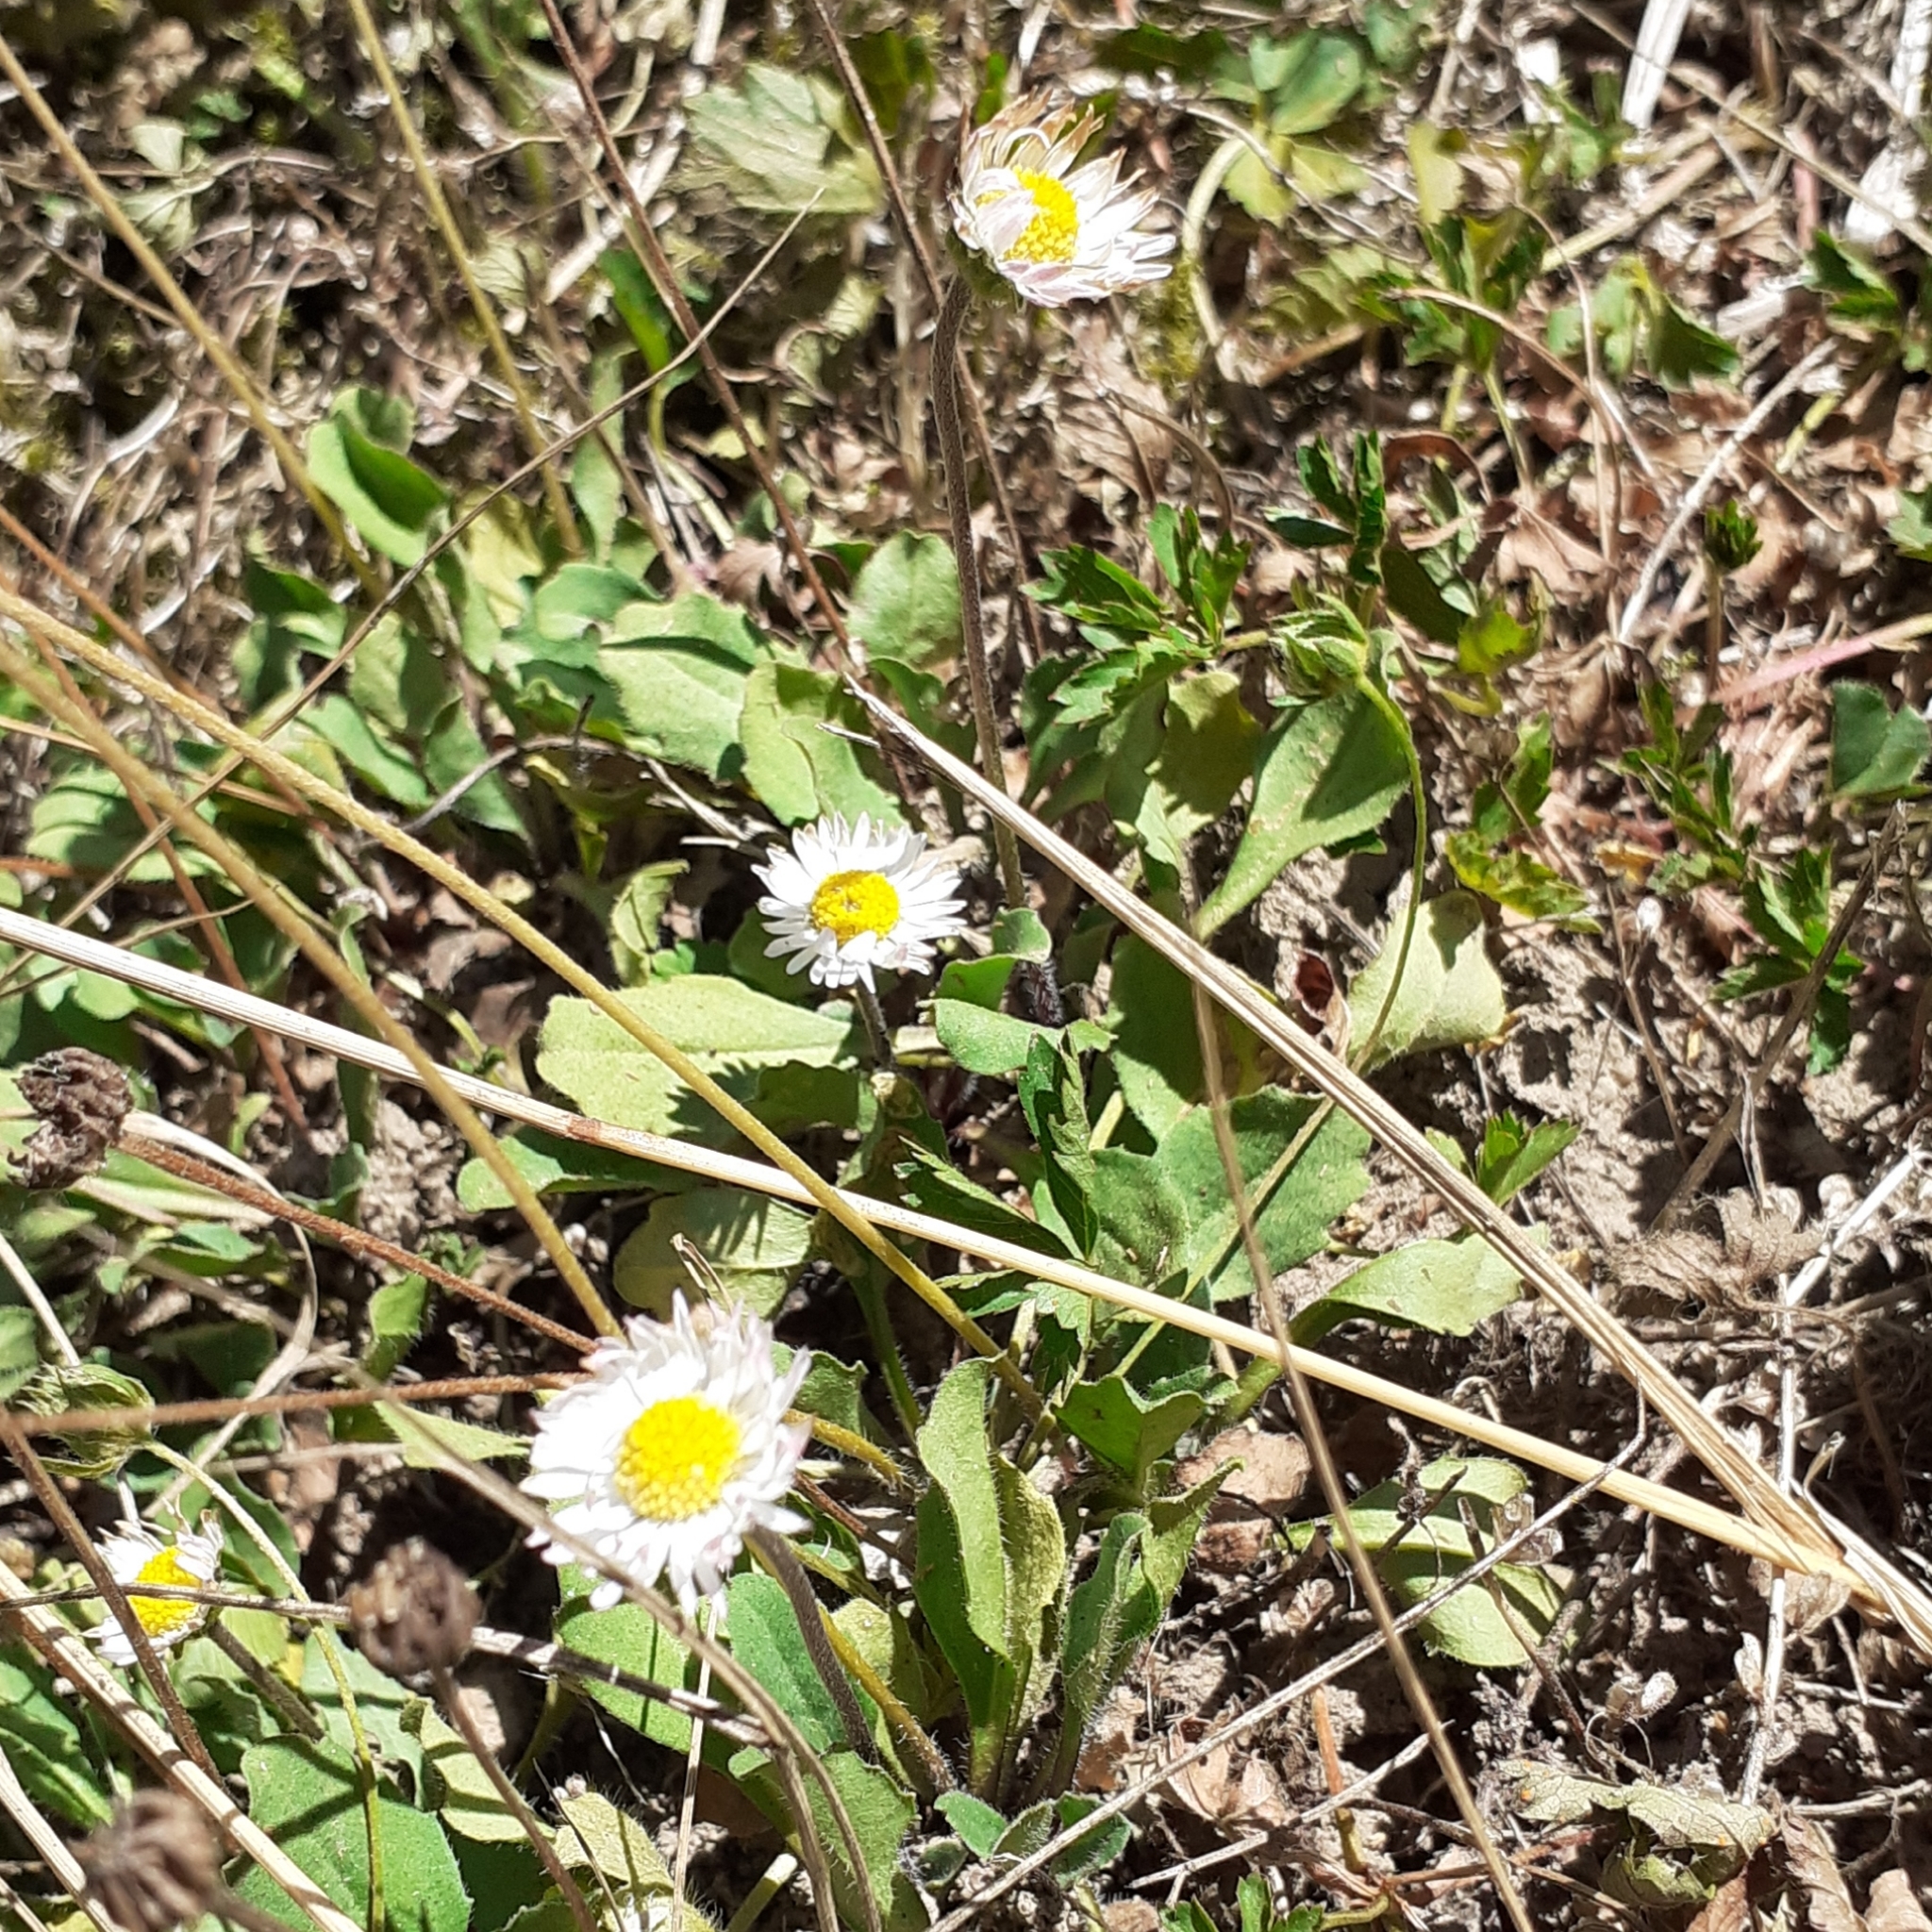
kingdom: Plantae
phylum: Tracheophyta
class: Magnoliopsida
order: Asterales
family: Asteraceae
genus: Bellis
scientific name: Bellis perennis
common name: Lawndaisy
